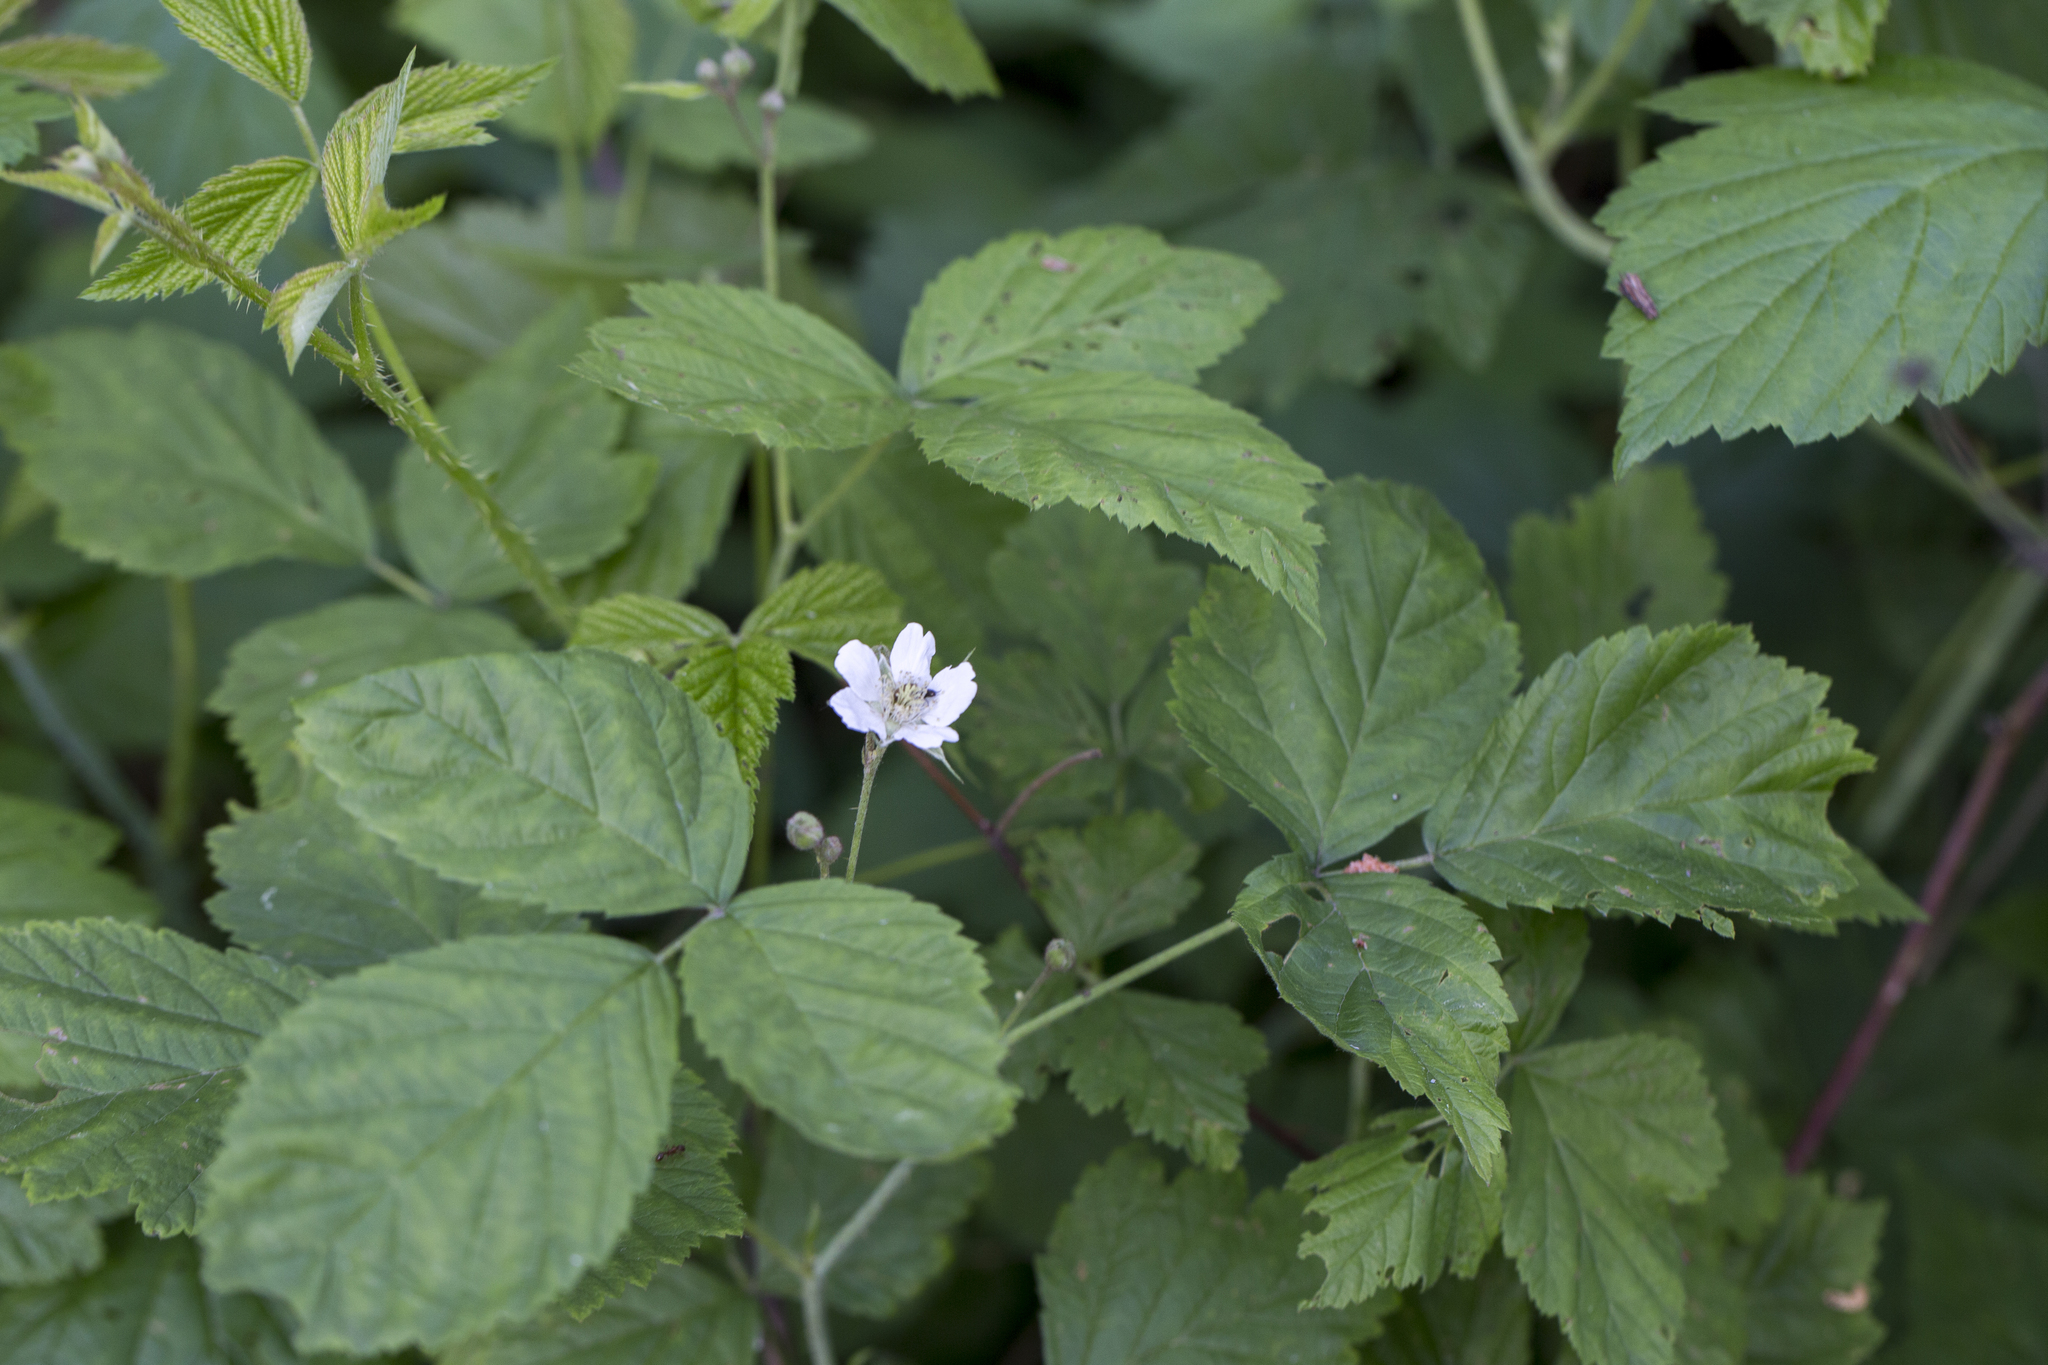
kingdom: Plantae
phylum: Tracheophyta
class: Magnoliopsida
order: Rosales
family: Rosaceae
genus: Rubus
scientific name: Rubus caesius
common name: Dewberry
